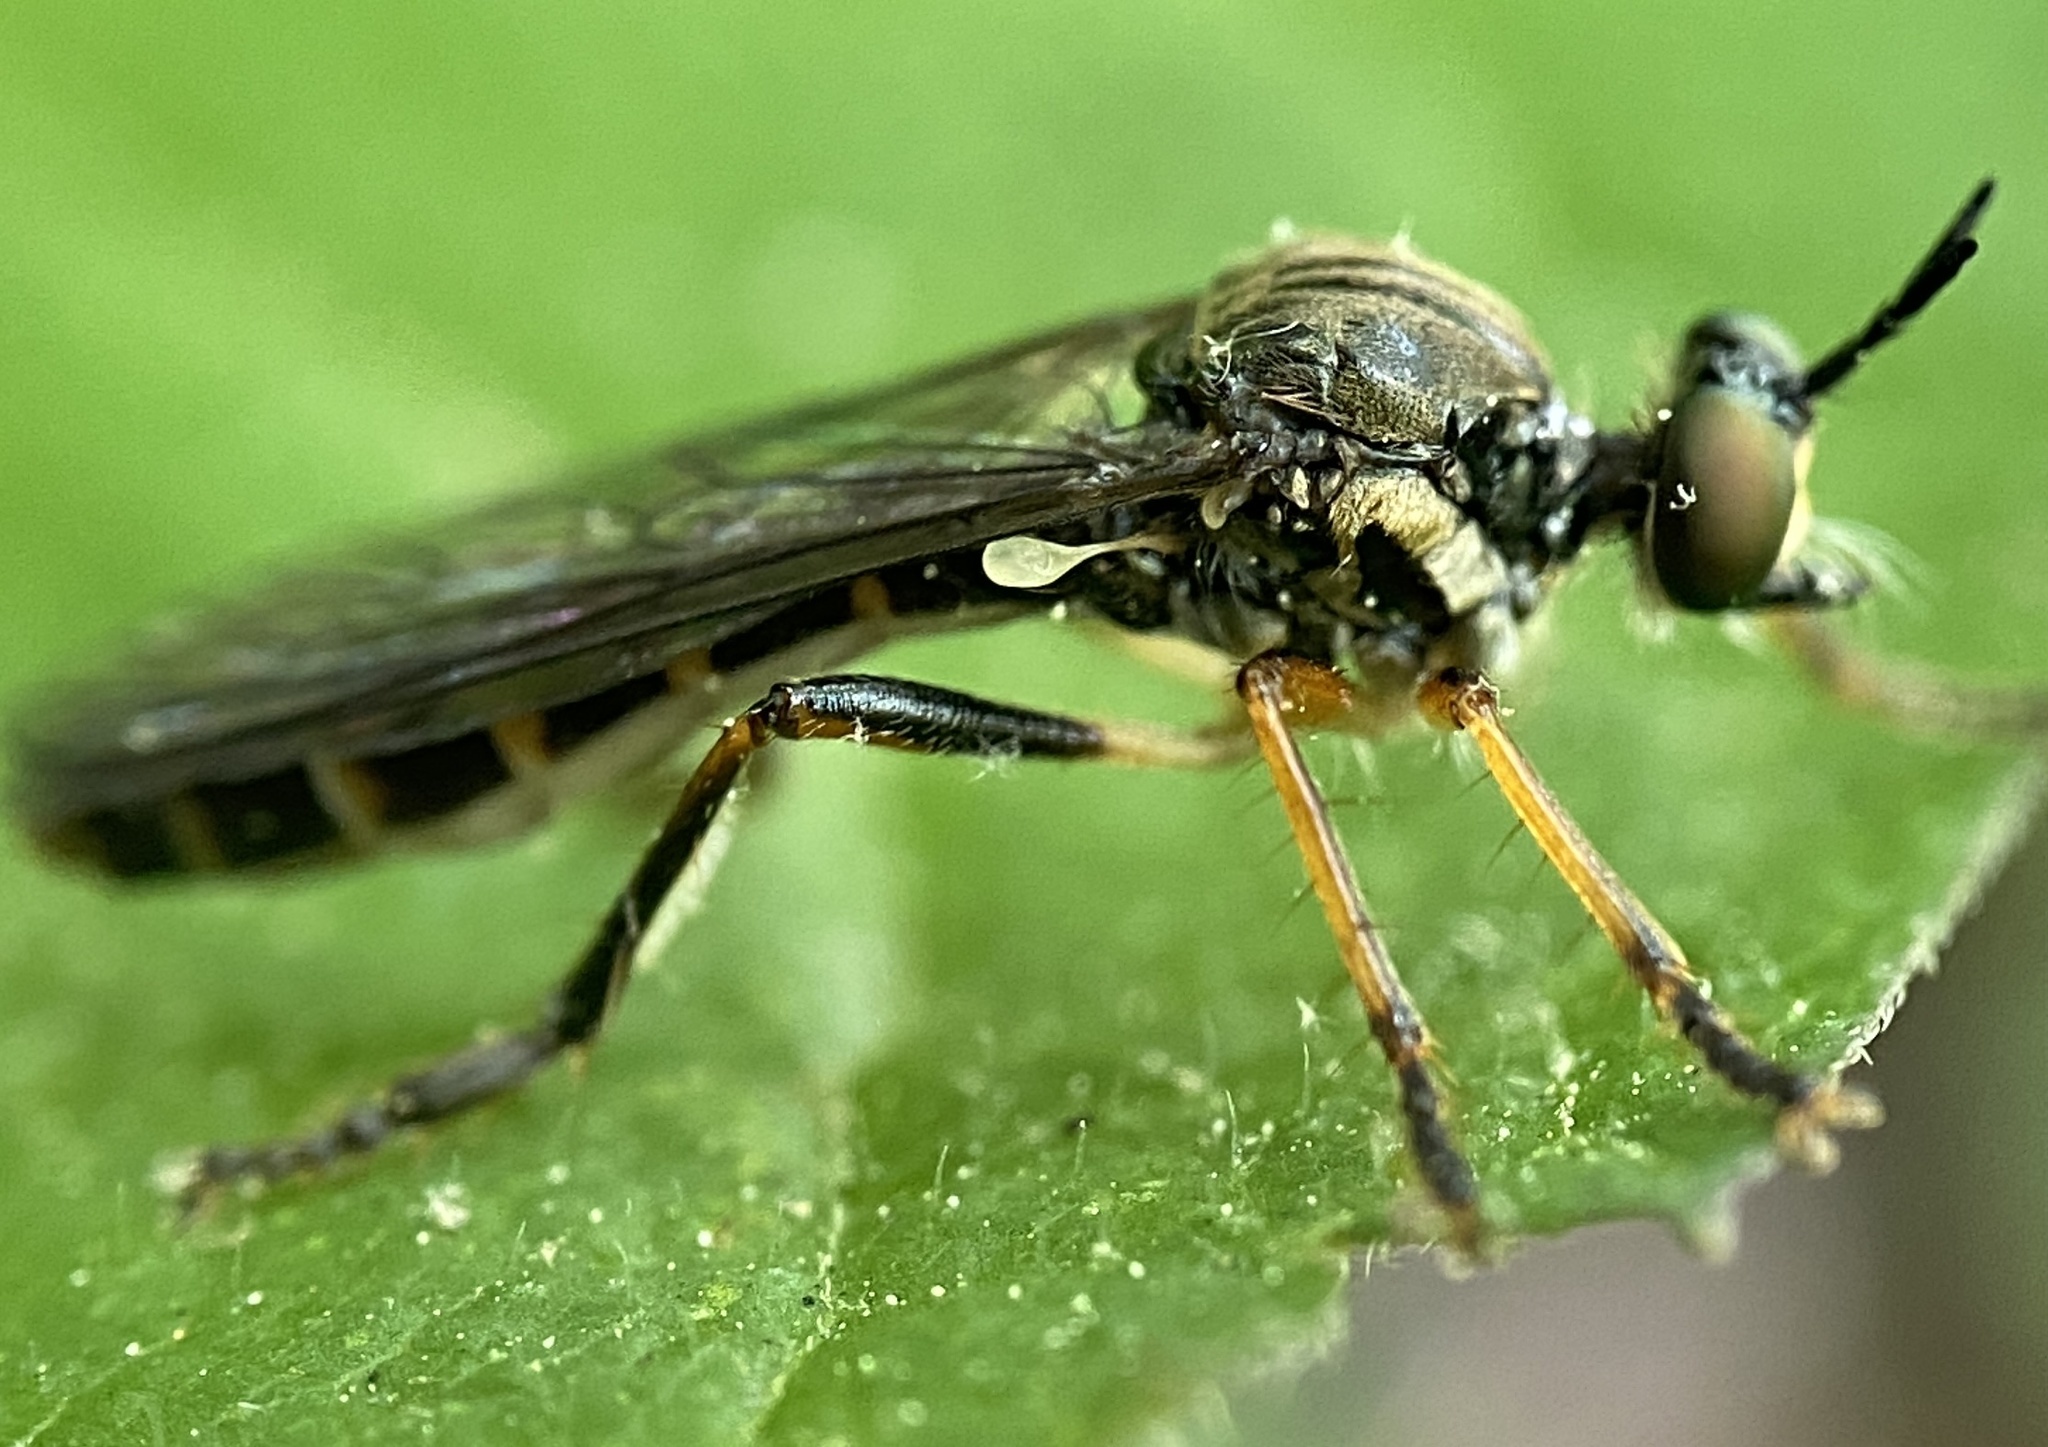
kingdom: Animalia
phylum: Arthropoda
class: Insecta
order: Diptera
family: Asilidae
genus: Dioctria
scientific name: Dioctria hyalipennis
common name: Stripe-legged robberfly
